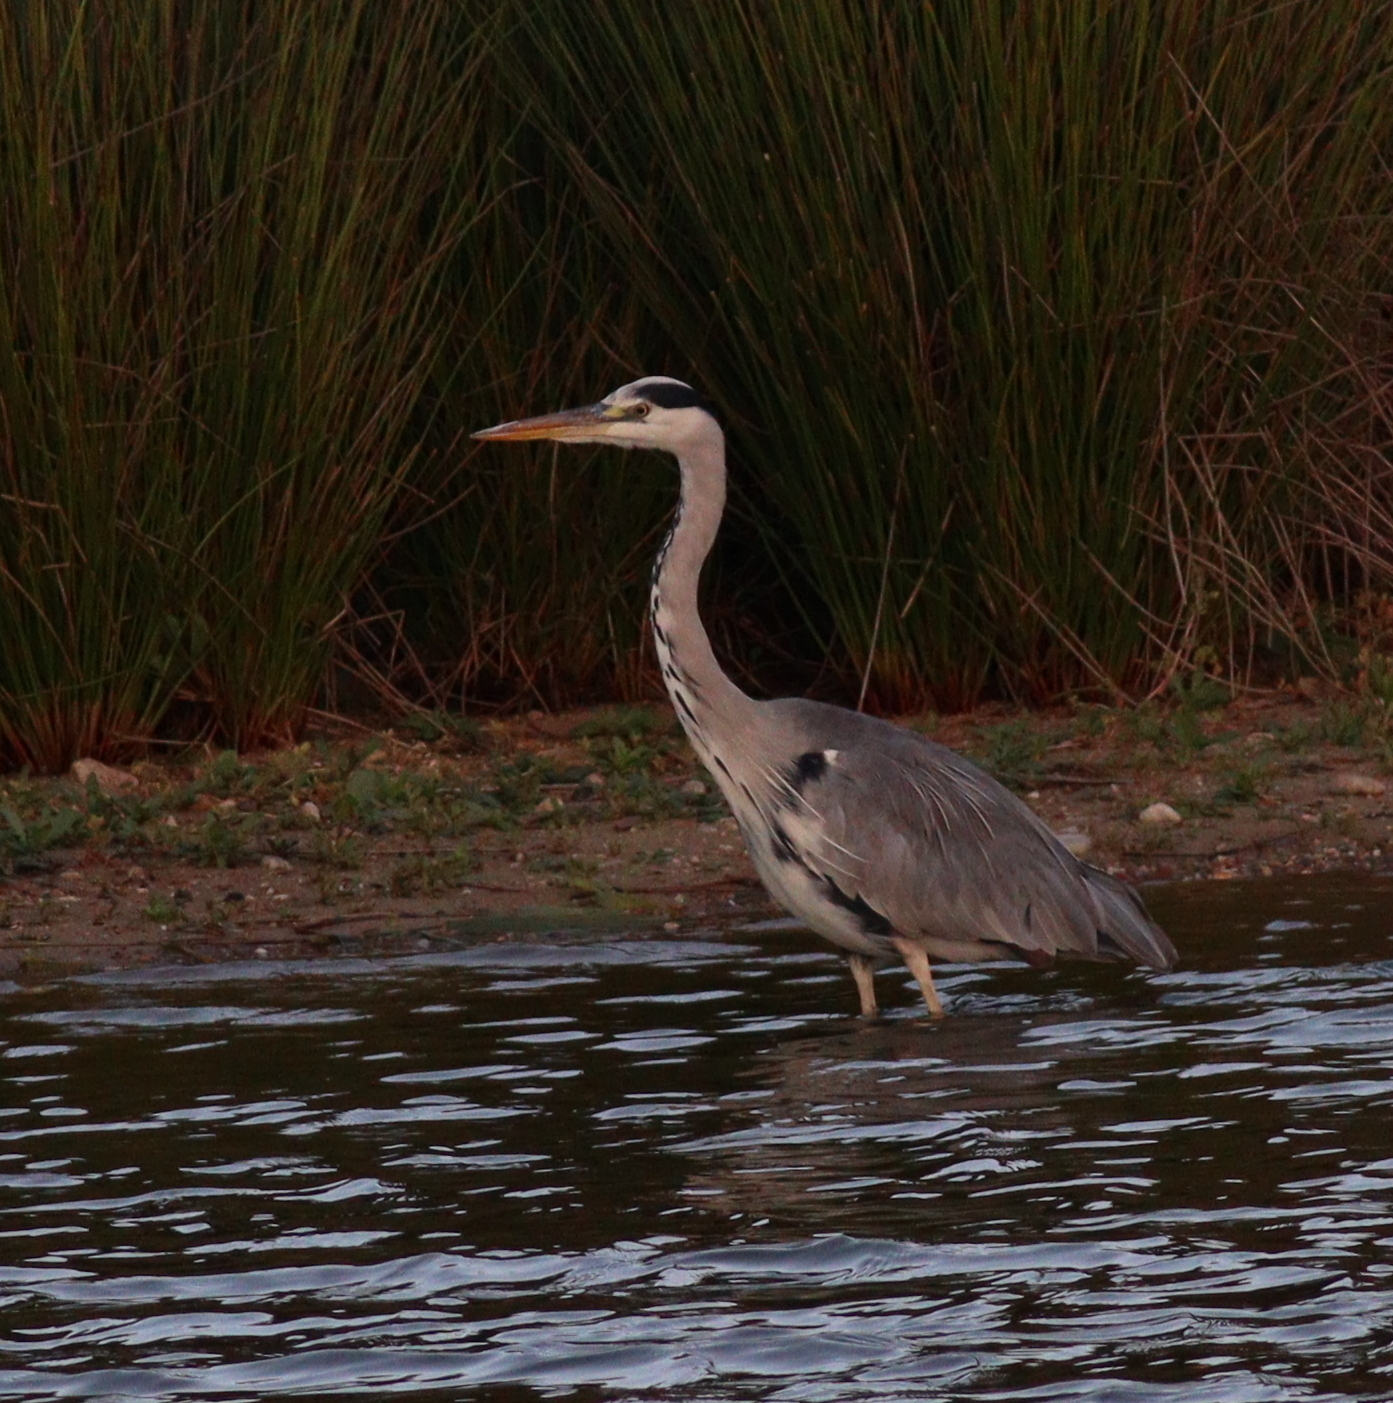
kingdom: Animalia
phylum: Chordata
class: Aves
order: Pelecaniformes
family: Ardeidae
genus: Ardea
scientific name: Ardea cinerea
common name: Grey heron
